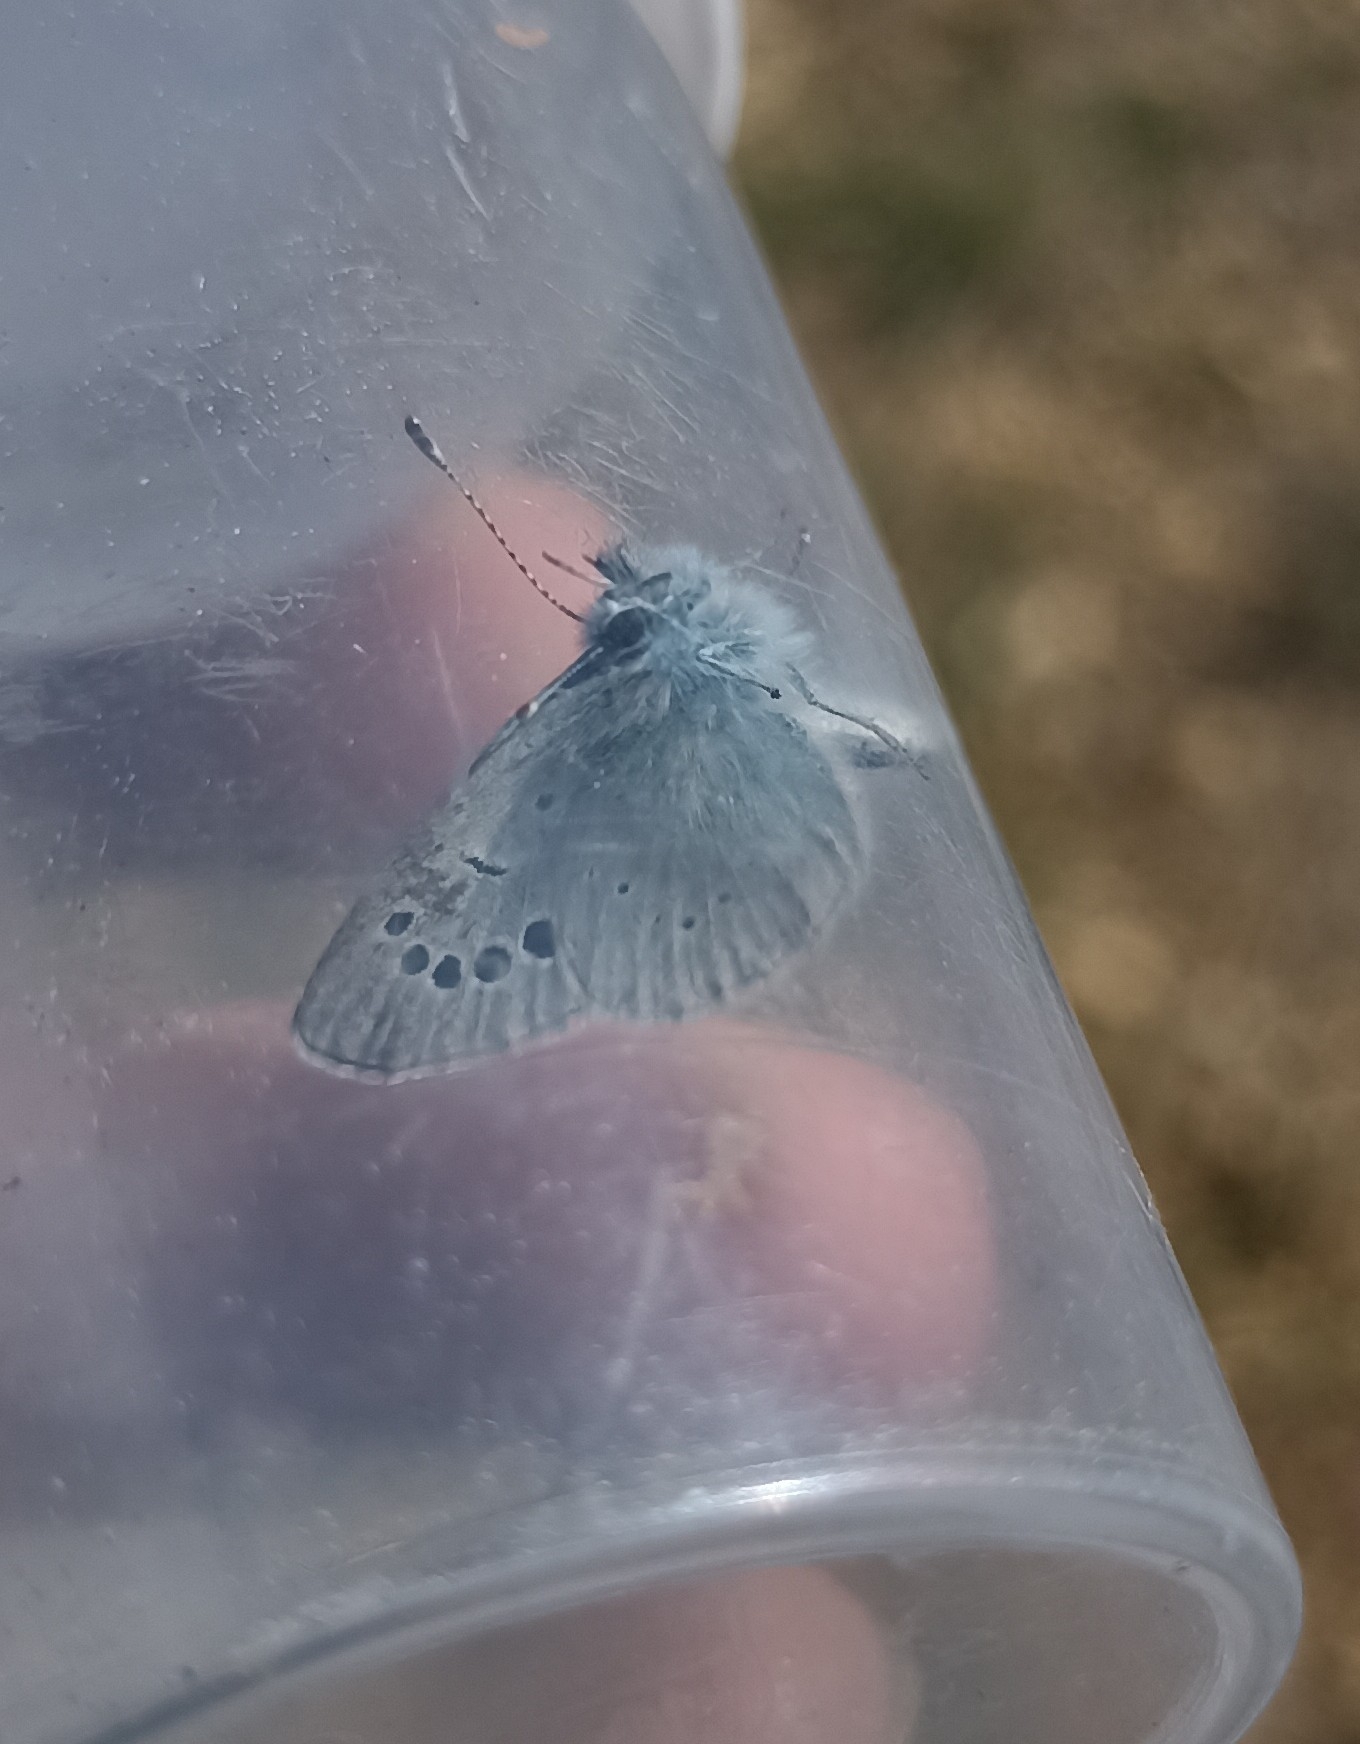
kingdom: Animalia
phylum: Arthropoda
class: Insecta
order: Lepidoptera
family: Lycaenidae
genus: Glaucopsyche
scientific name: Glaucopsyche alexis
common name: Green-underside blue
